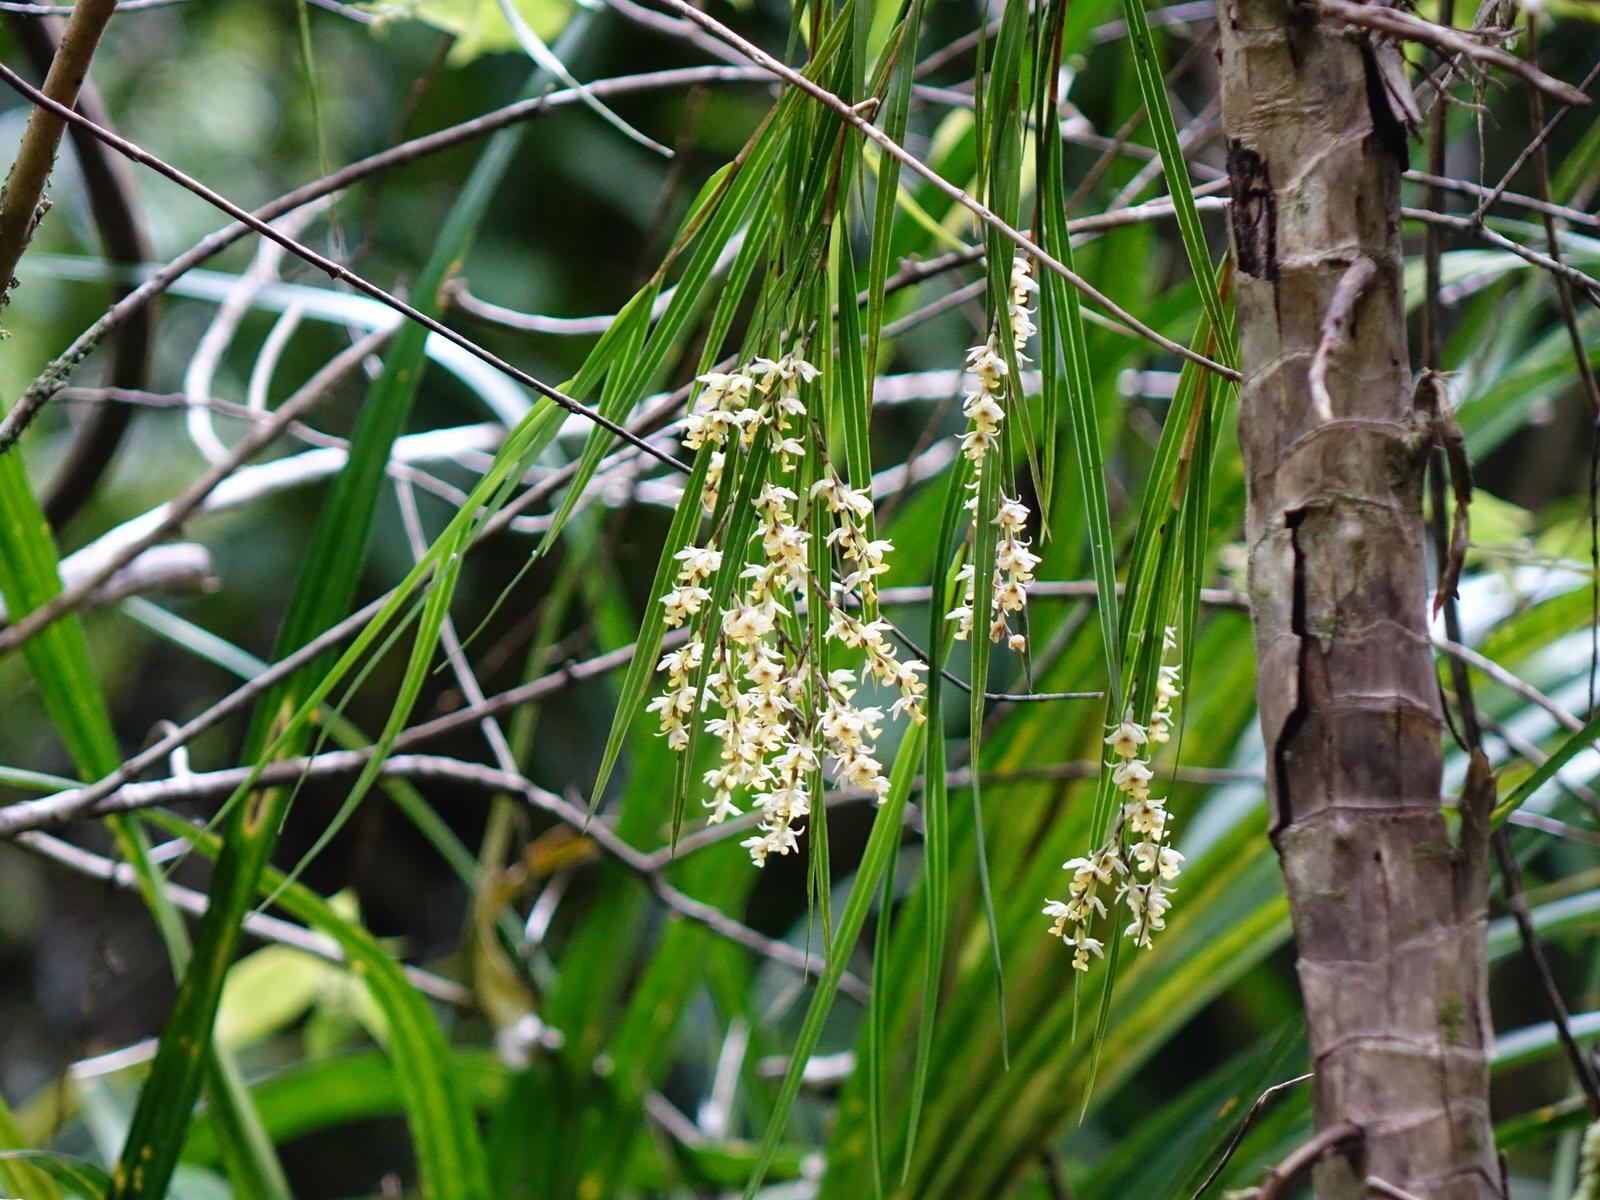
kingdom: Plantae
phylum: Tracheophyta
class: Liliopsida
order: Asparagales
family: Orchidaceae
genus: Earina
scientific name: Earina mucronata
